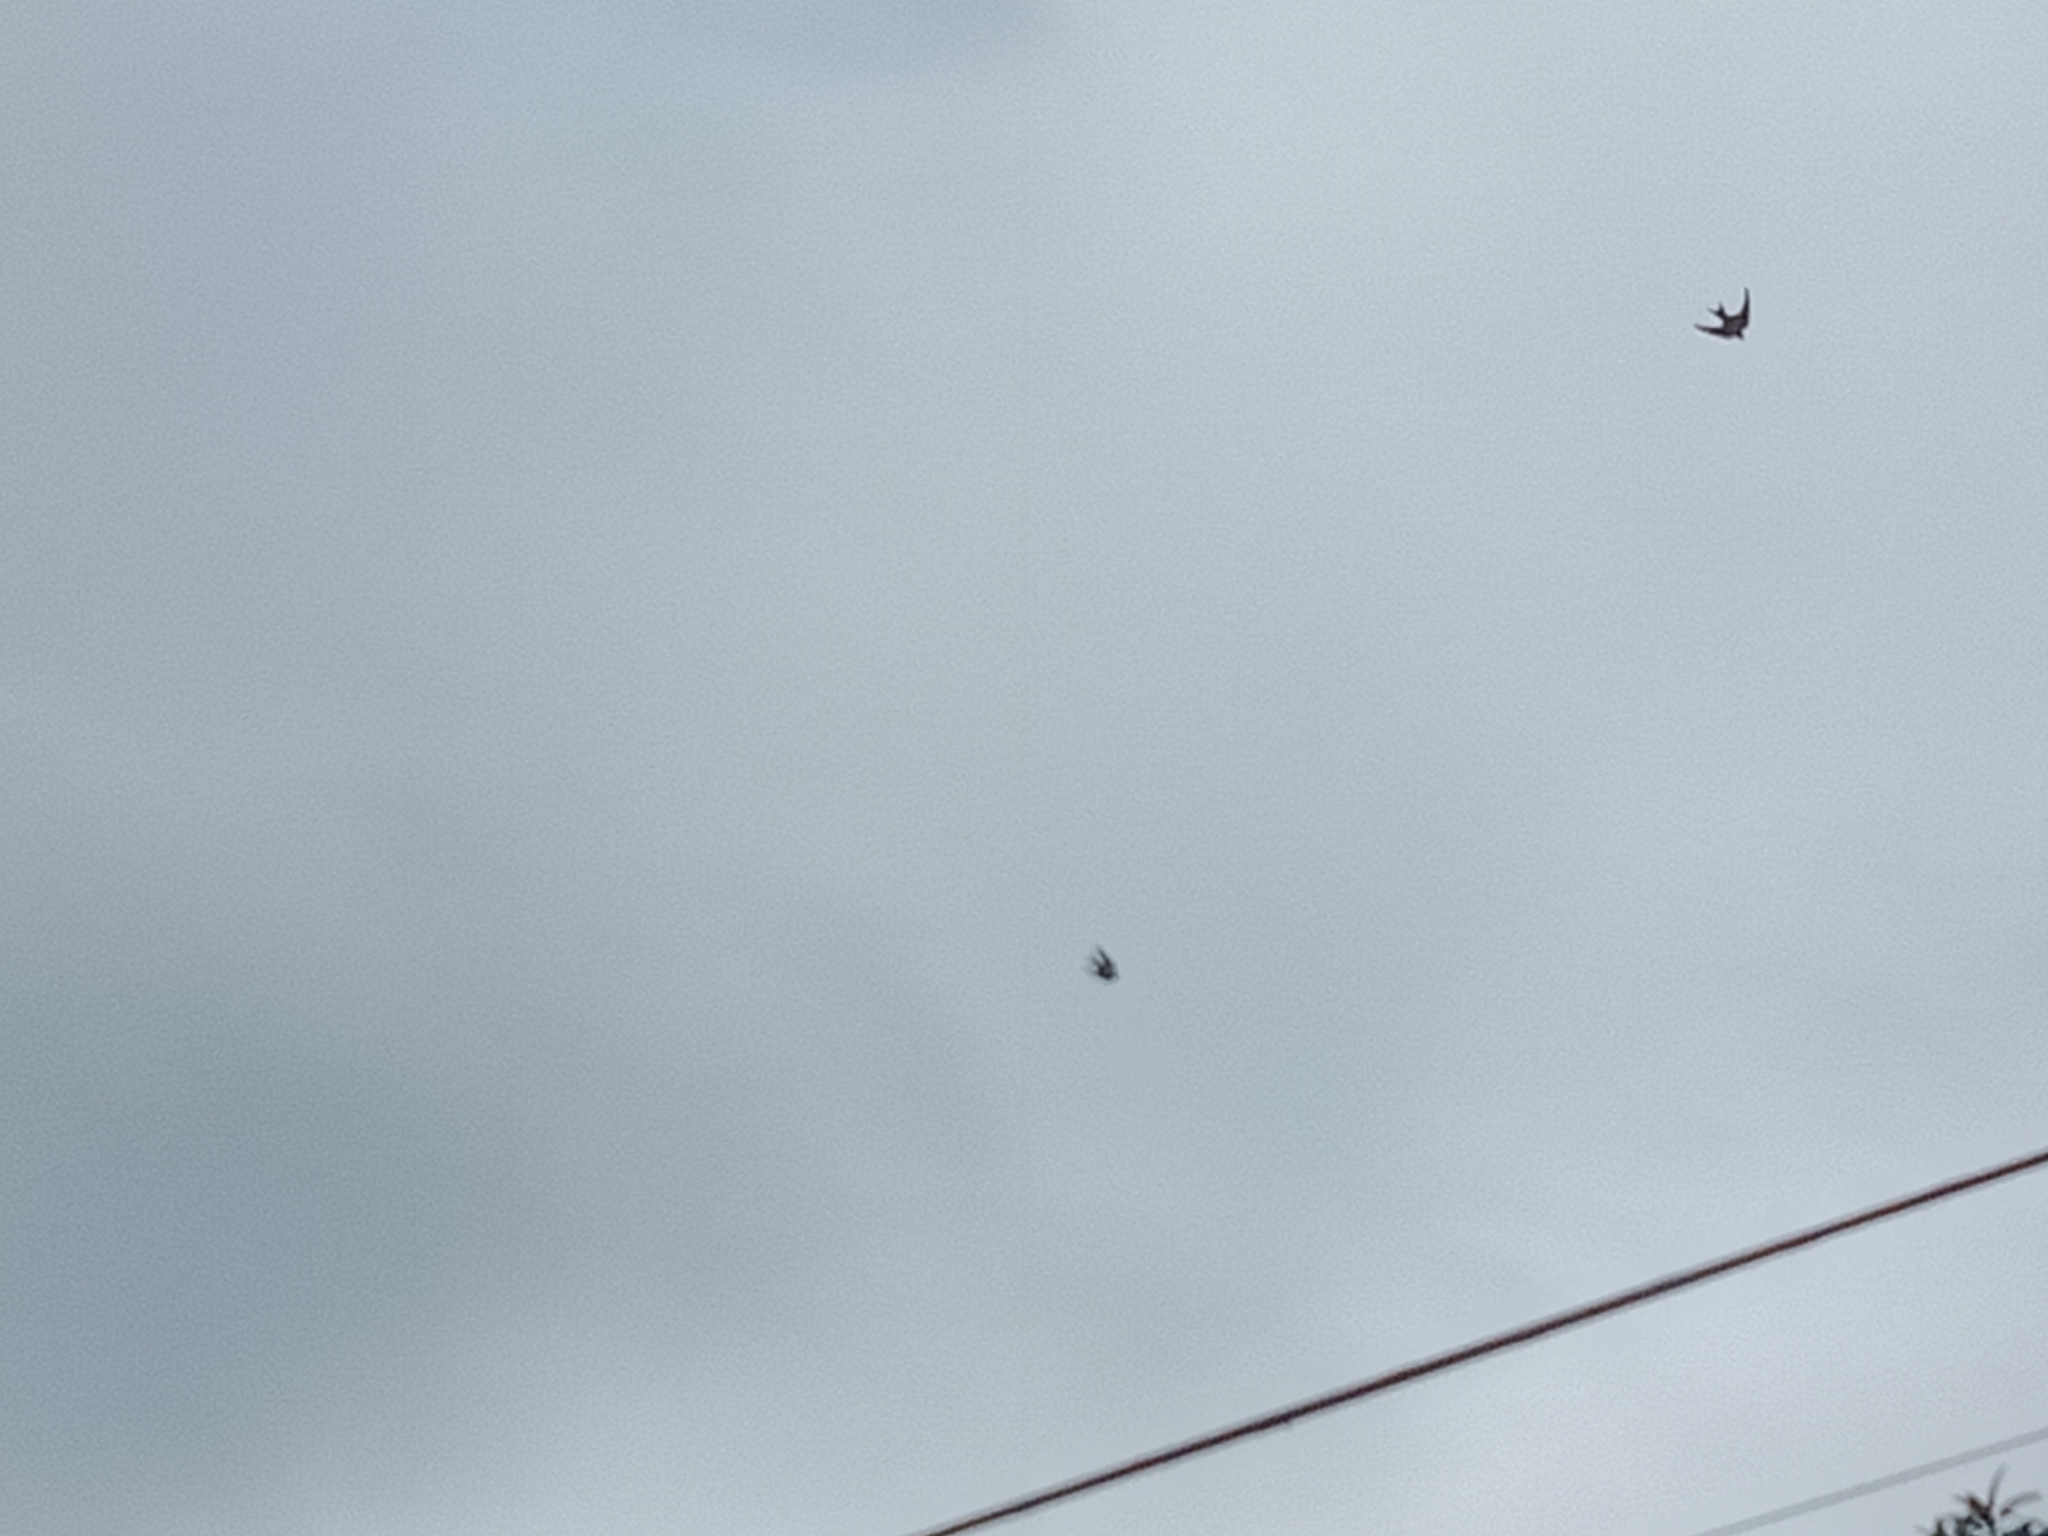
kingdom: Animalia
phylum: Chordata
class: Aves
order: Passeriformes
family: Hirundinidae
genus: Hirundo
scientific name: Hirundo rustica
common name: Barn swallow
